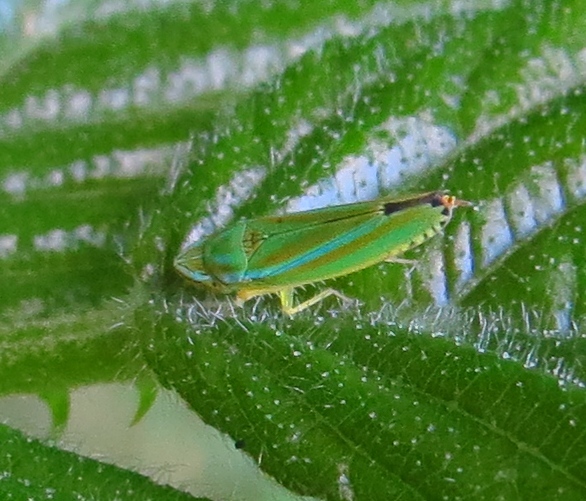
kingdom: Animalia
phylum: Arthropoda
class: Insecta
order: Hemiptera
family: Cicadellidae
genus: Graphocephala
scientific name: Graphocephala versuta
